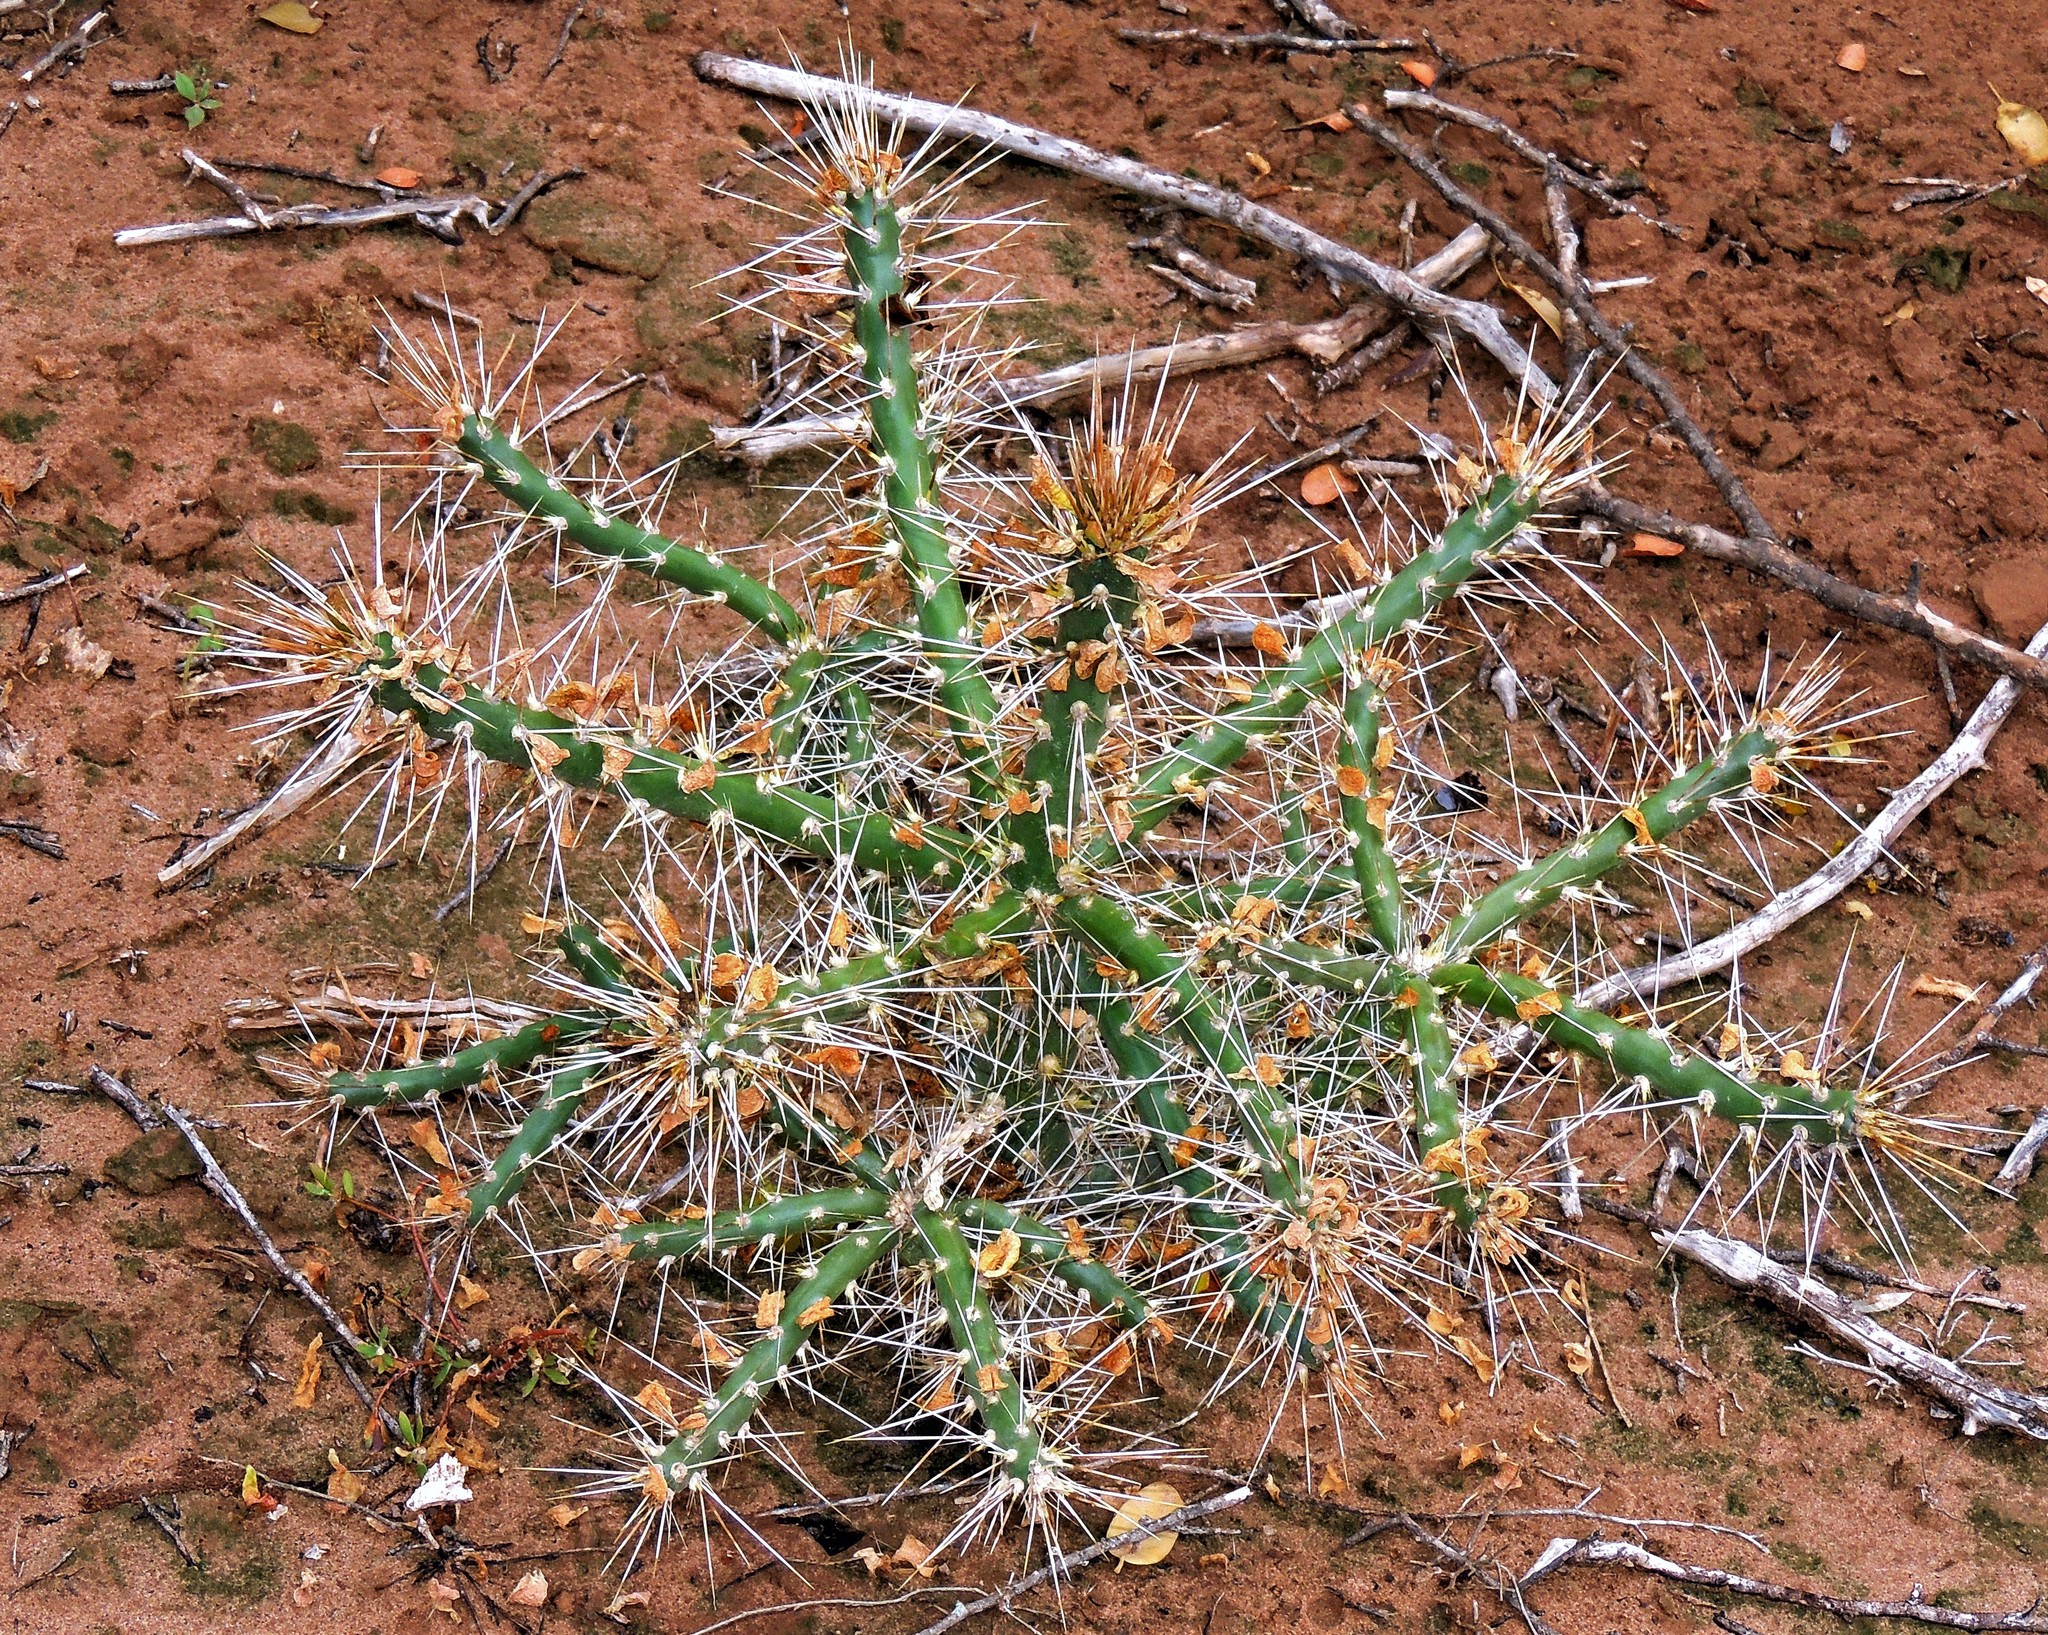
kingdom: Plantae
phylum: Tracheophyta
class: Magnoliopsida
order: Caryophyllales
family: Cactaceae
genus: Quiabentia
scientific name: Quiabentia verticillata
